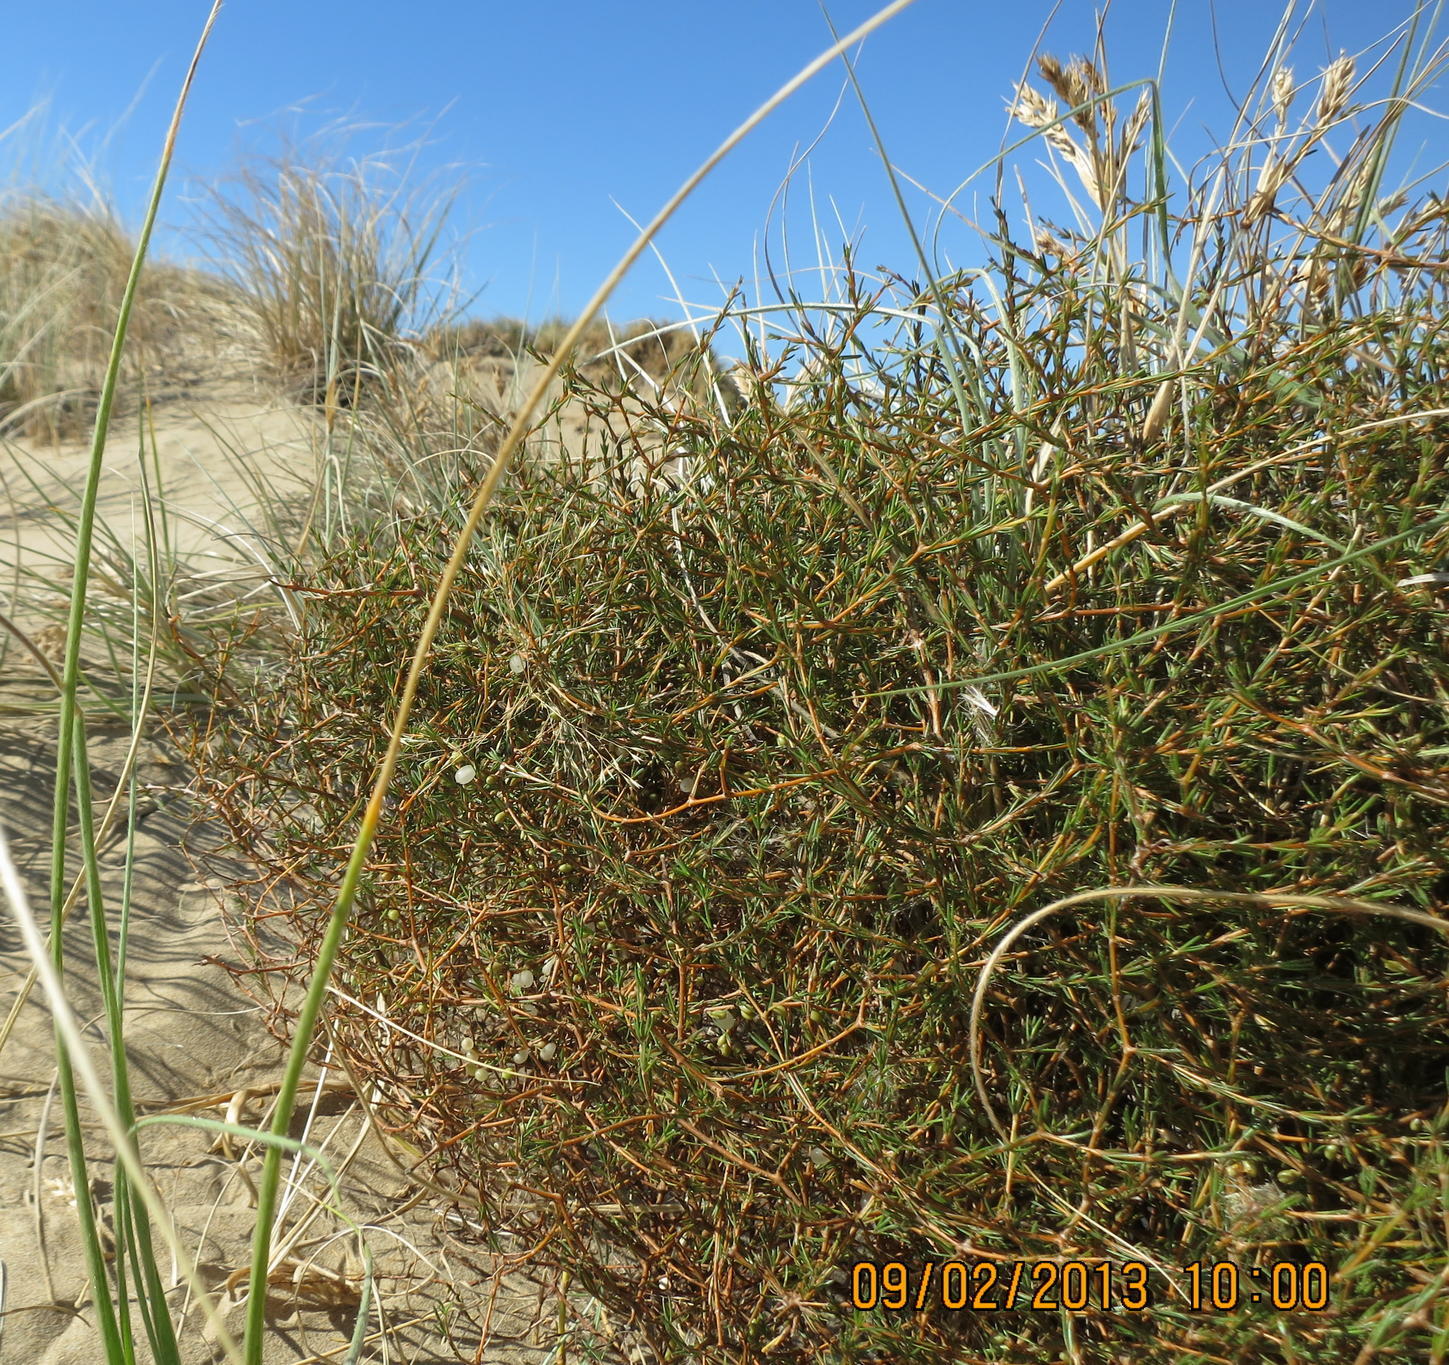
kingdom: Plantae
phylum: Tracheophyta
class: Magnoliopsida
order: Gentianales
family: Rubiaceae
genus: Coprosma
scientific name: Coprosma acerosa
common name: Sand coprosma
